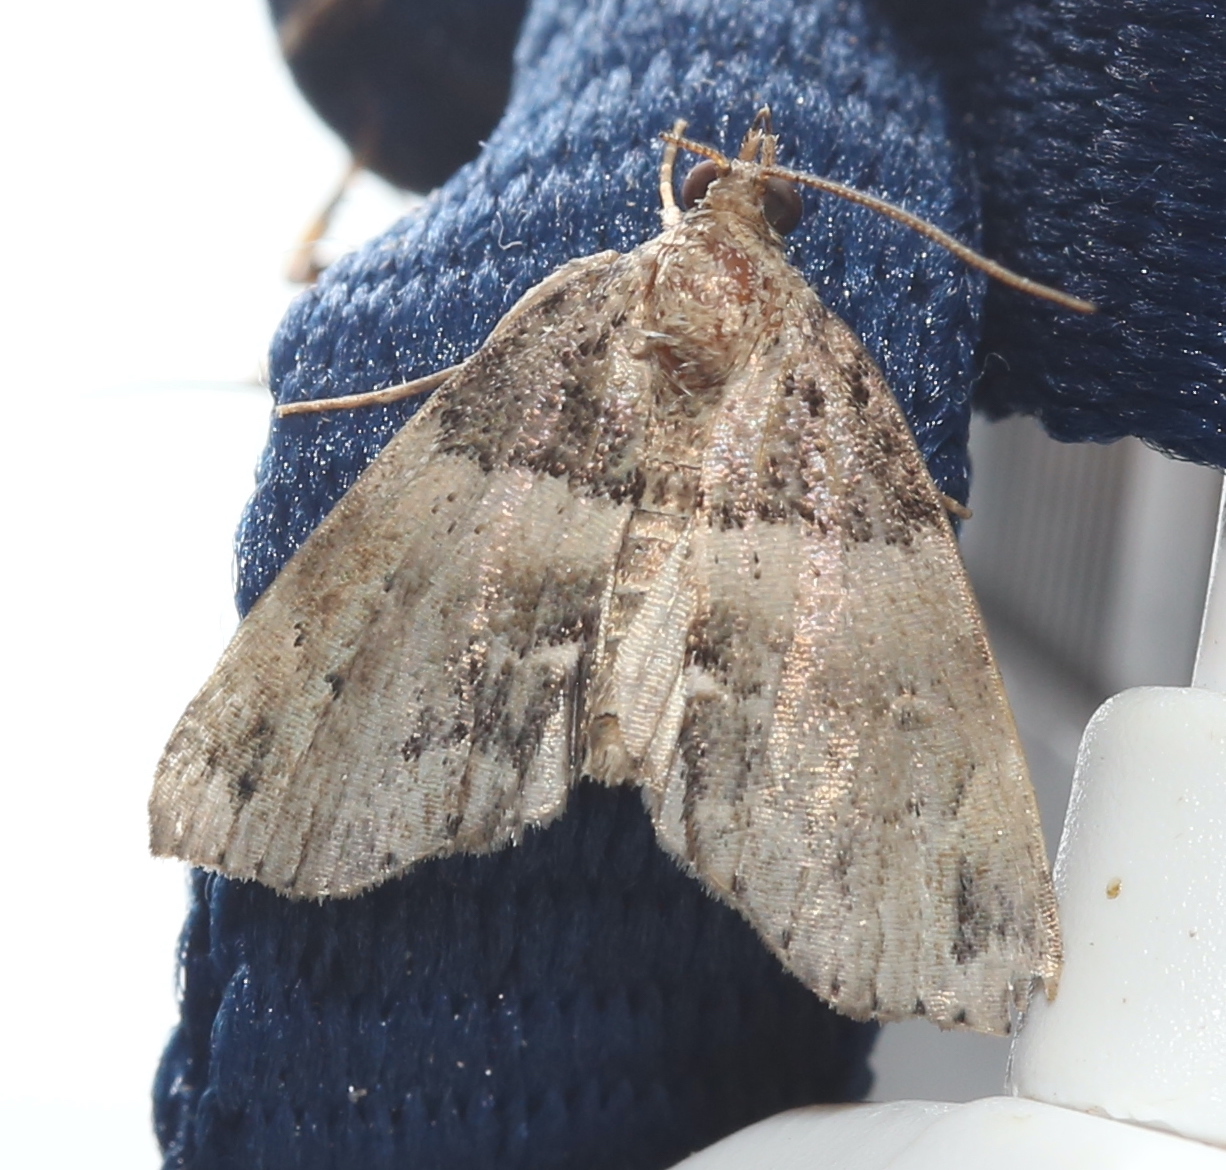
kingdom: Animalia
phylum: Arthropoda
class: Insecta
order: Lepidoptera
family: Erebidae
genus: Cutina
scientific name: Cutina distincta
